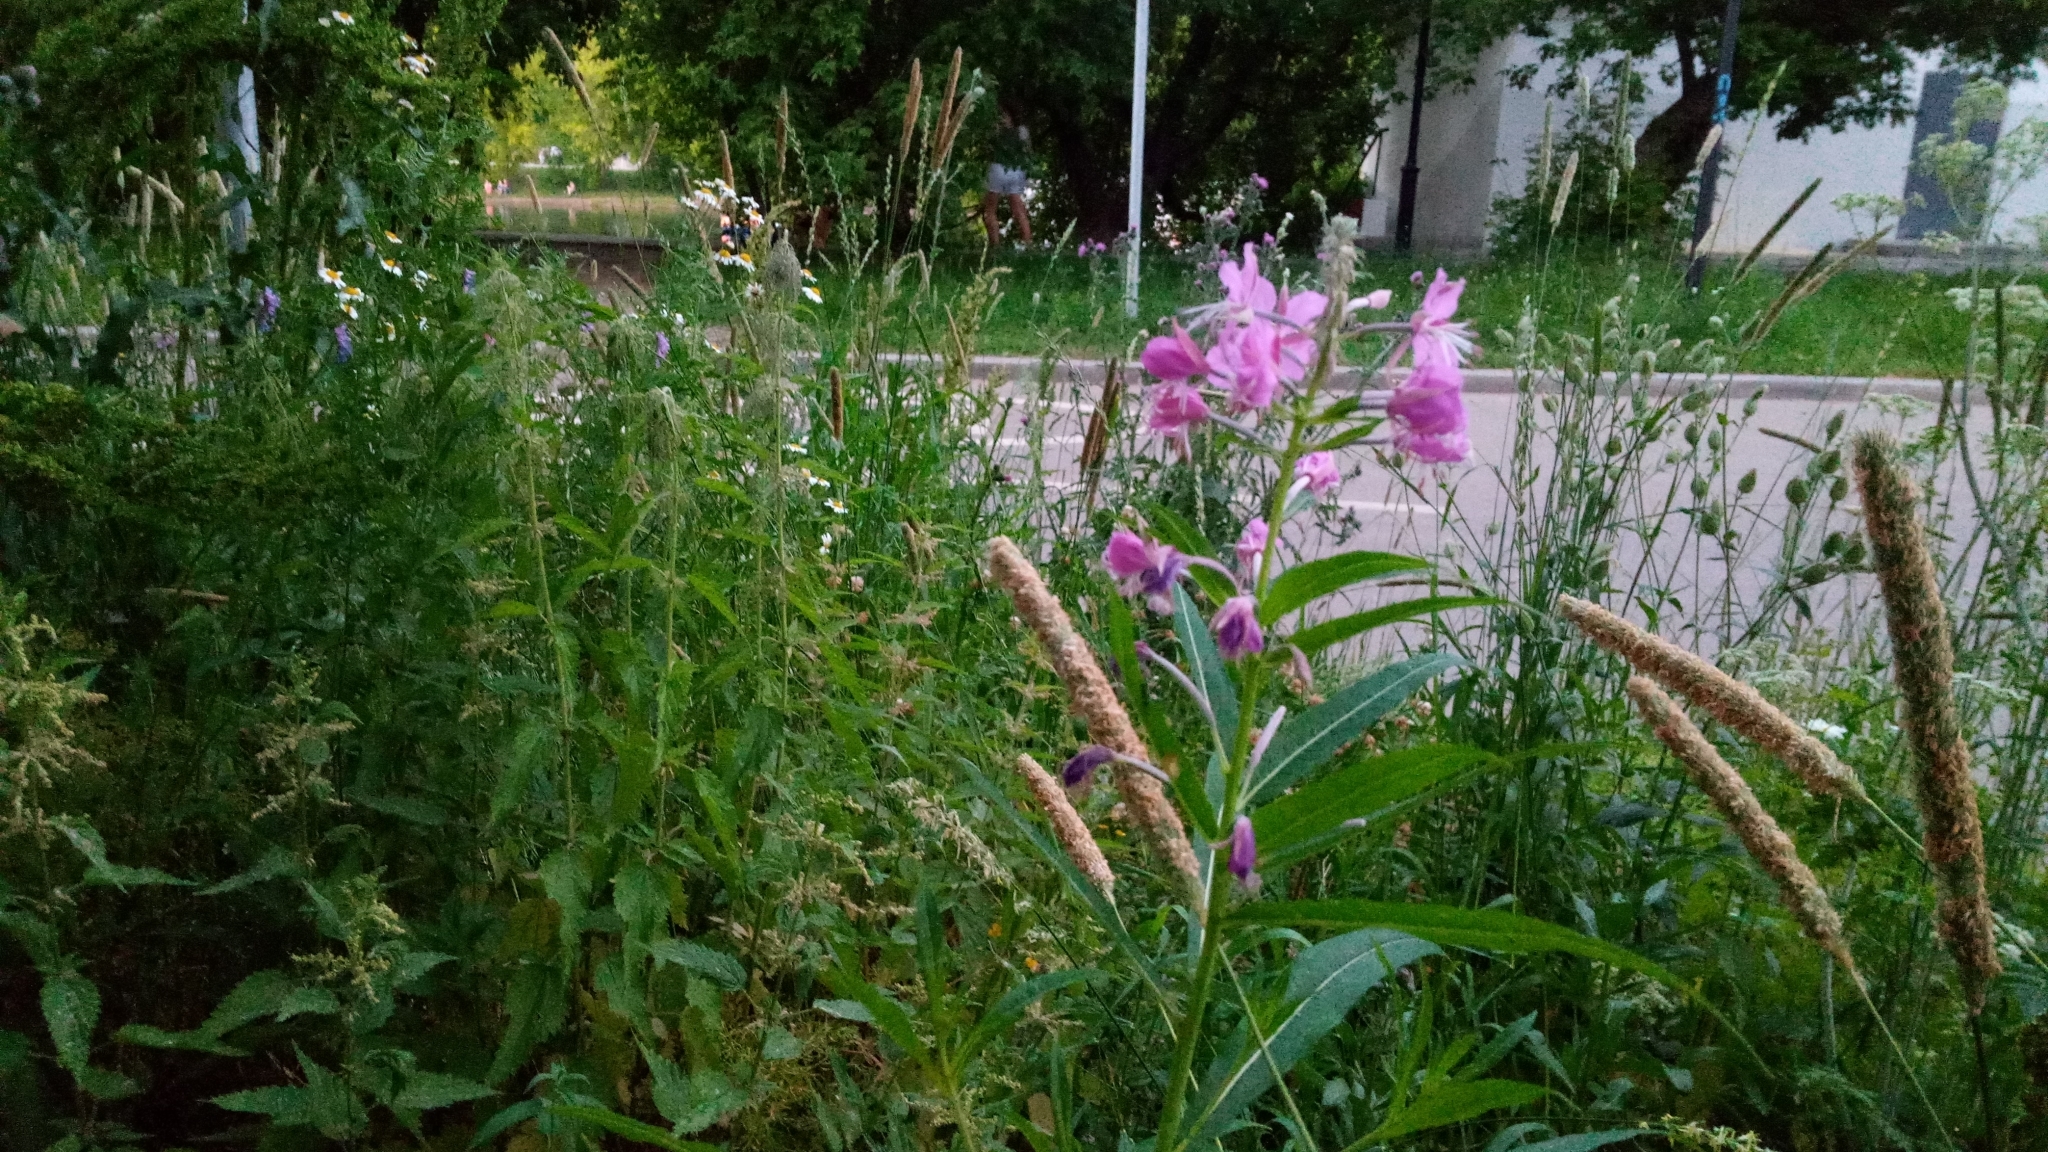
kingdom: Plantae
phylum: Tracheophyta
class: Magnoliopsida
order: Myrtales
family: Onagraceae
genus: Chamaenerion
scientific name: Chamaenerion angustifolium
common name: Fireweed
